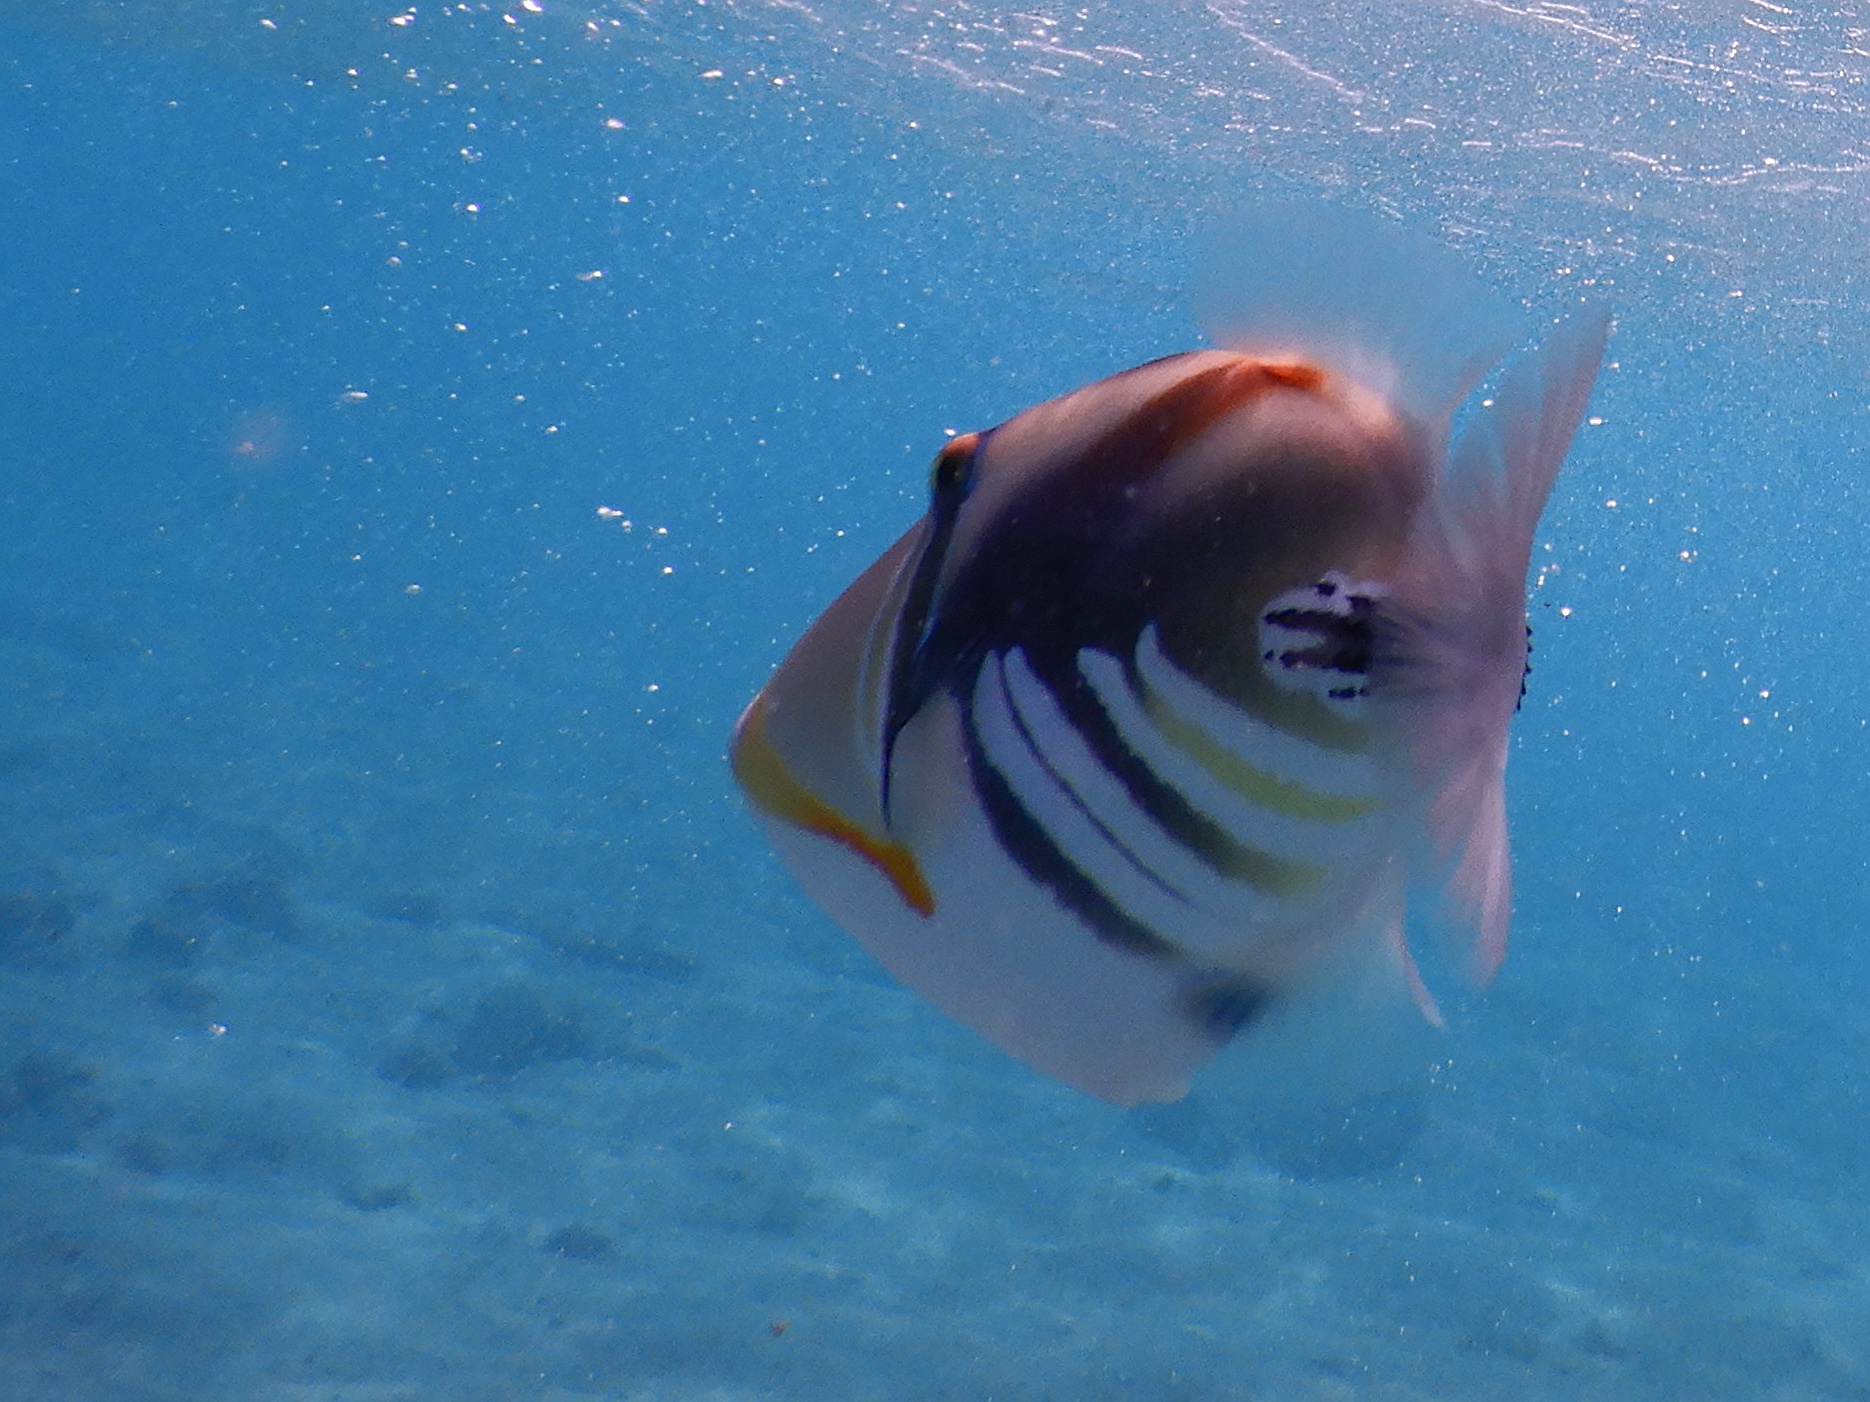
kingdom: Animalia
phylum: Chordata
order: Tetraodontiformes
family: Balistidae
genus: Rhinecanthus
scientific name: Rhinecanthus aculeatus
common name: White-banded triggerfish
